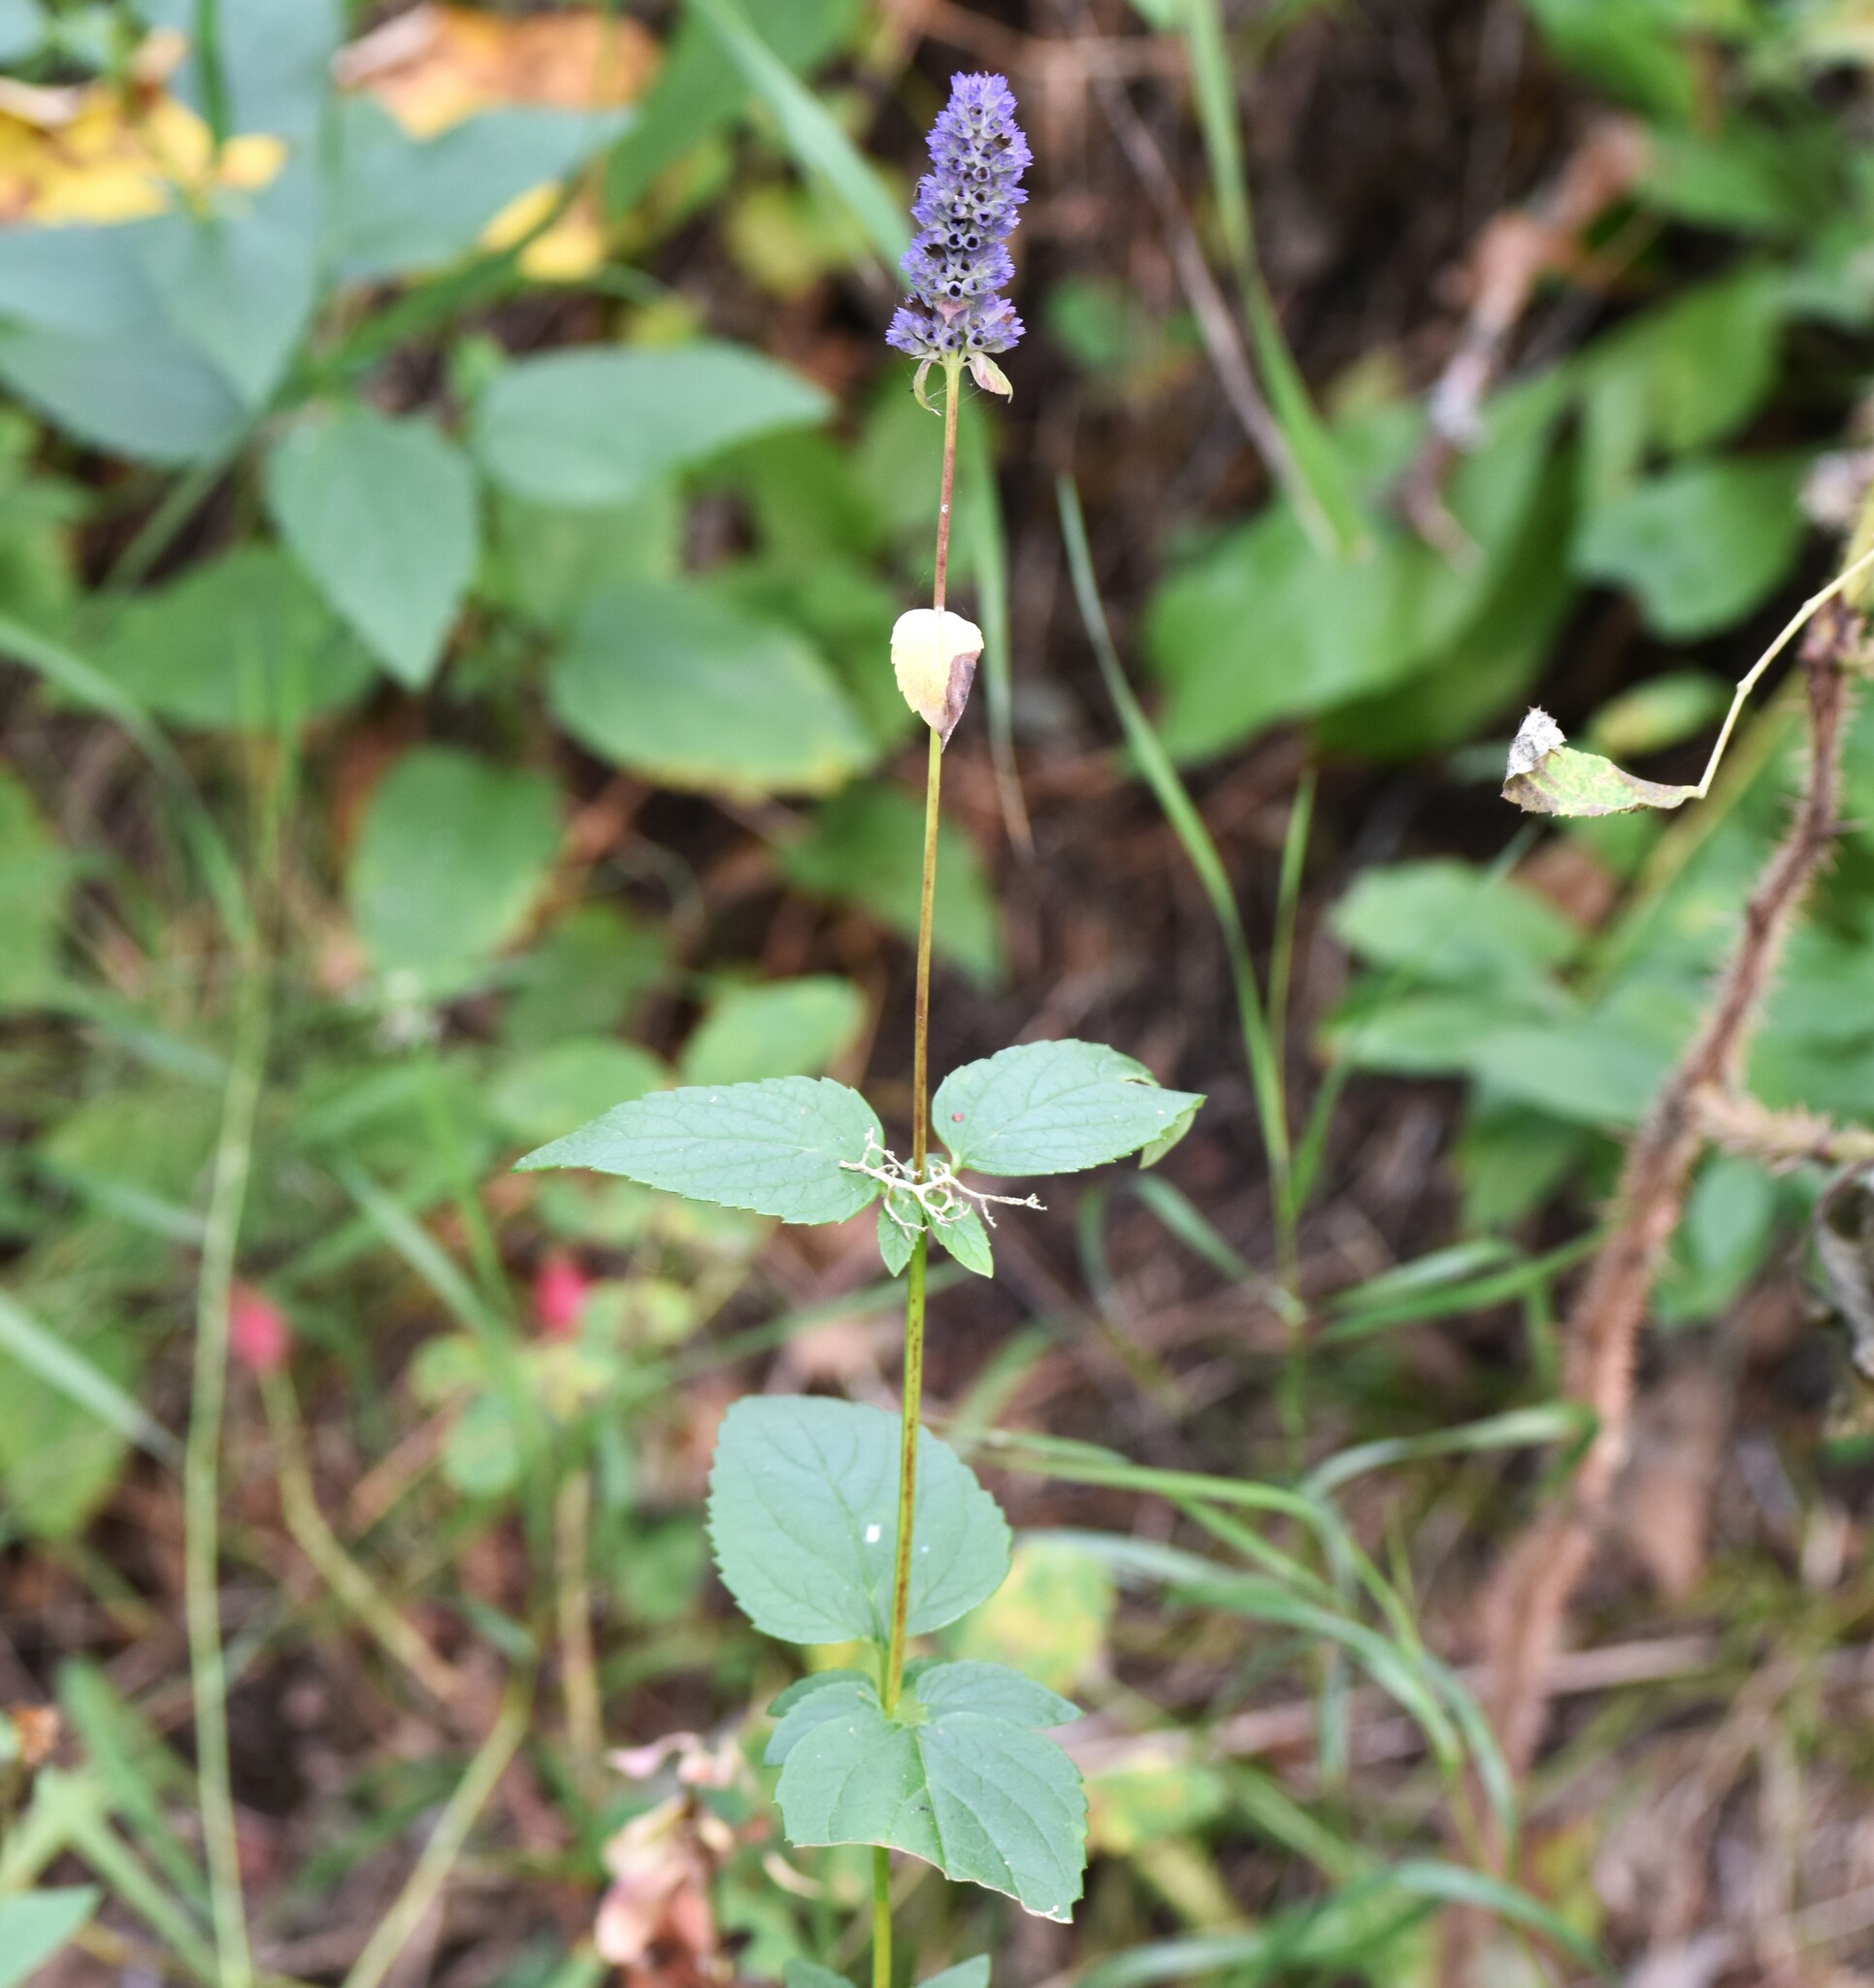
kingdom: Plantae
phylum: Tracheophyta
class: Magnoliopsida
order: Lamiales
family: Lamiaceae
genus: Agastache
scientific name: Agastache foeniculum
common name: Anise hyssop
